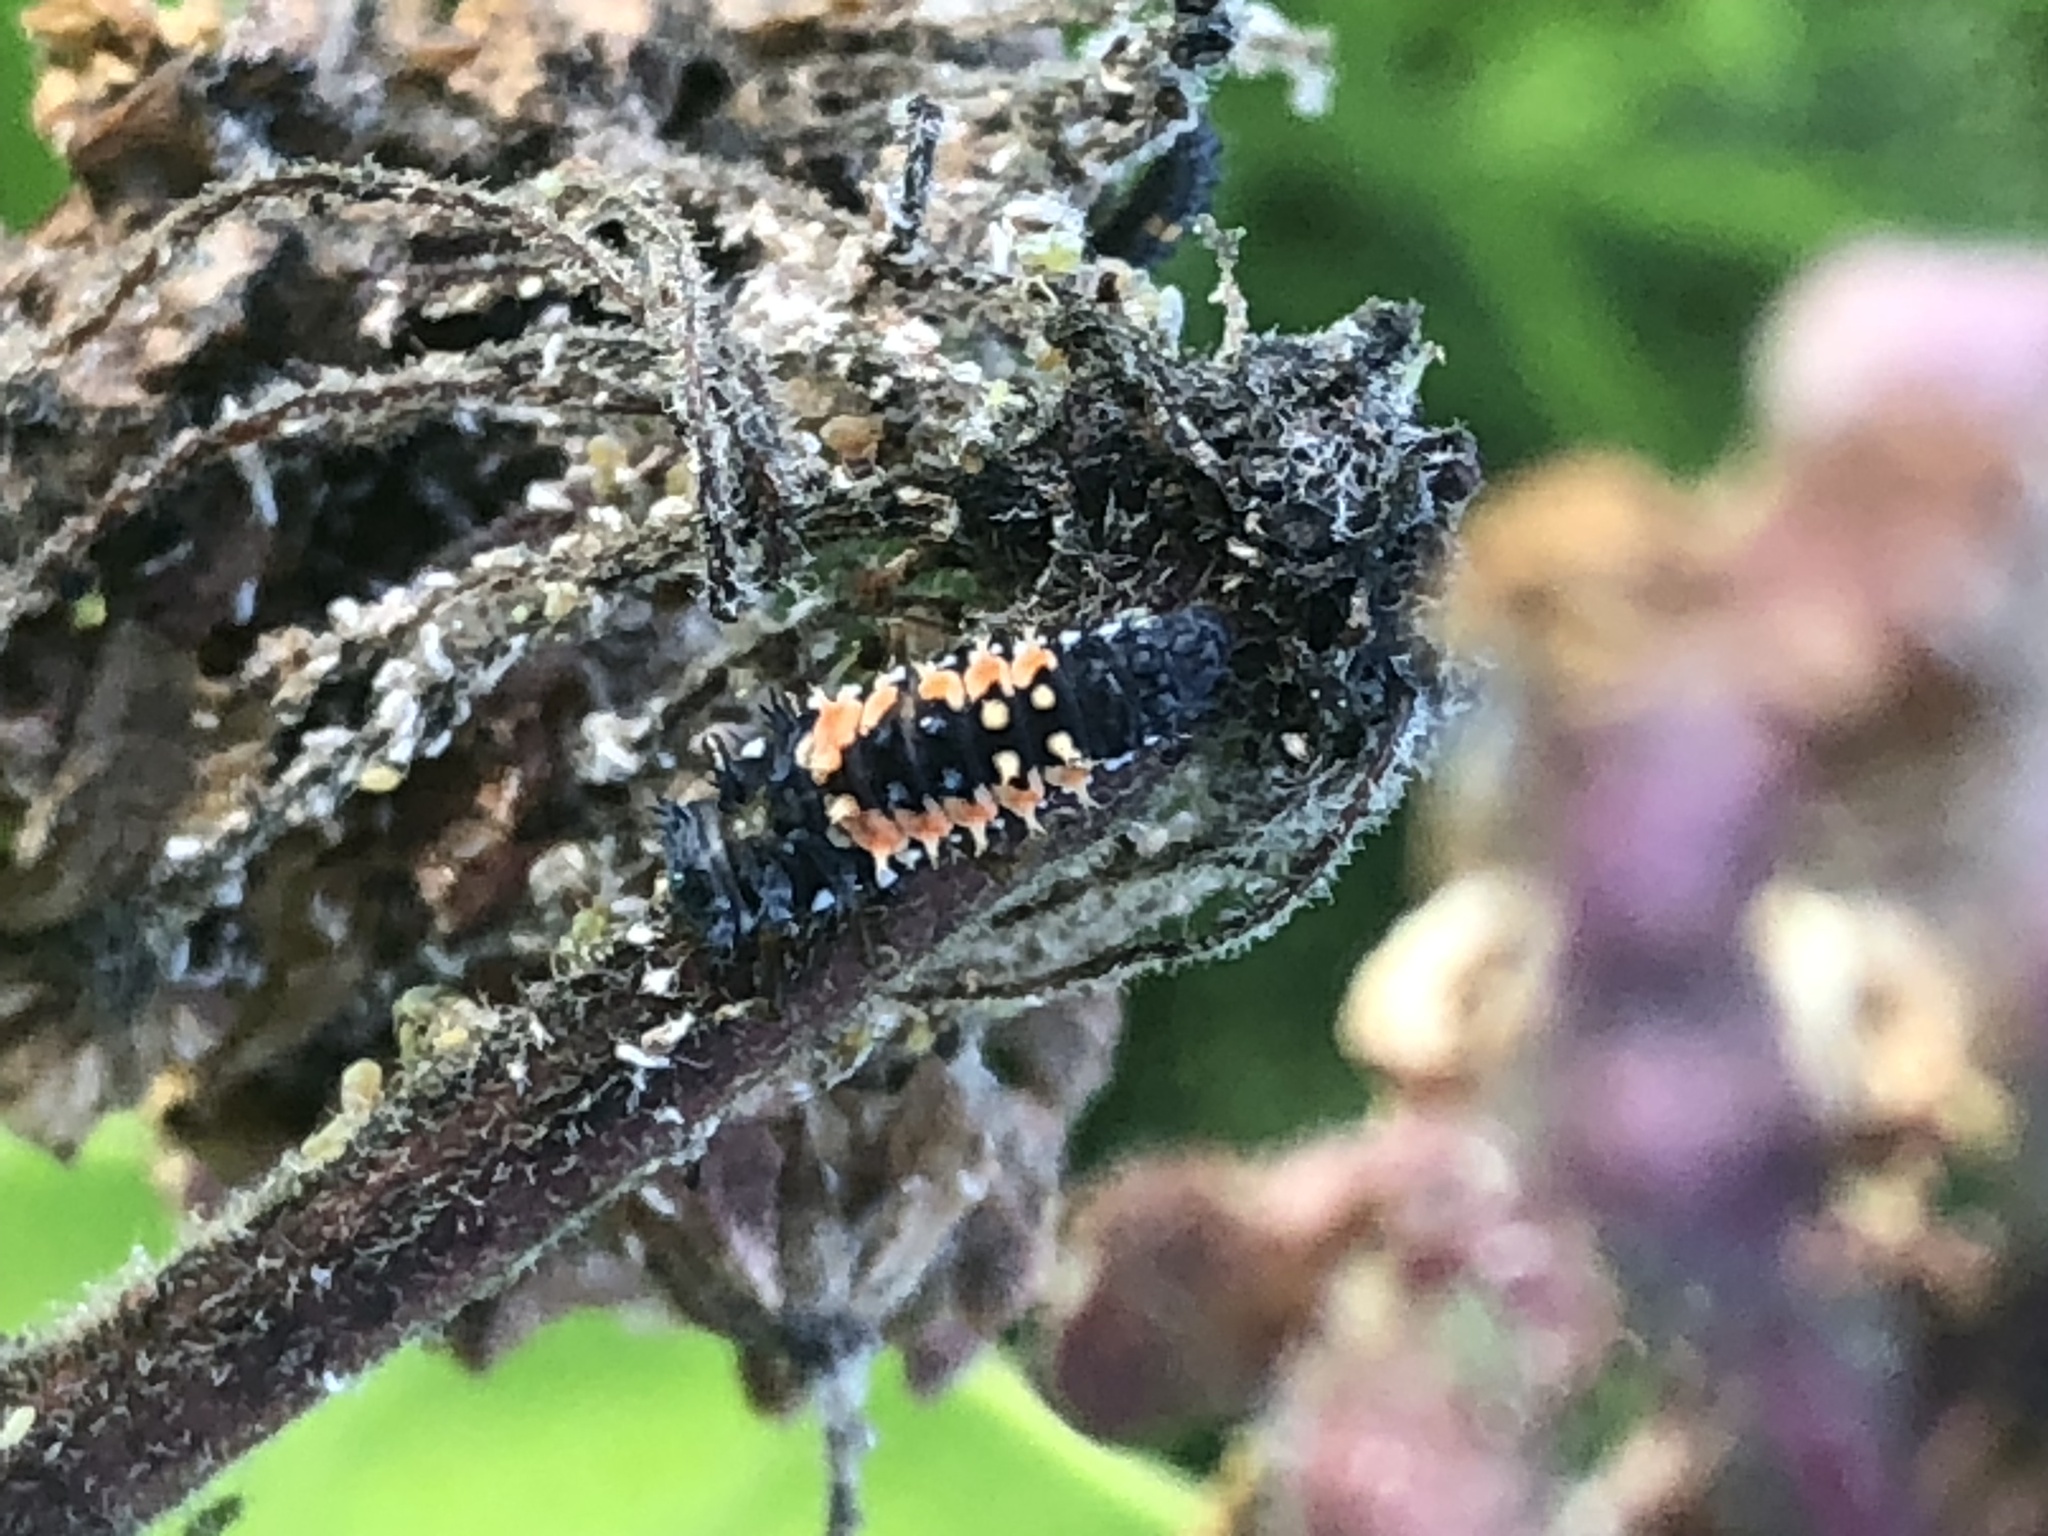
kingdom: Animalia
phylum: Arthropoda
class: Insecta
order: Coleoptera
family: Coccinellidae
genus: Harmonia
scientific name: Harmonia axyridis
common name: Harlequin ladybird
